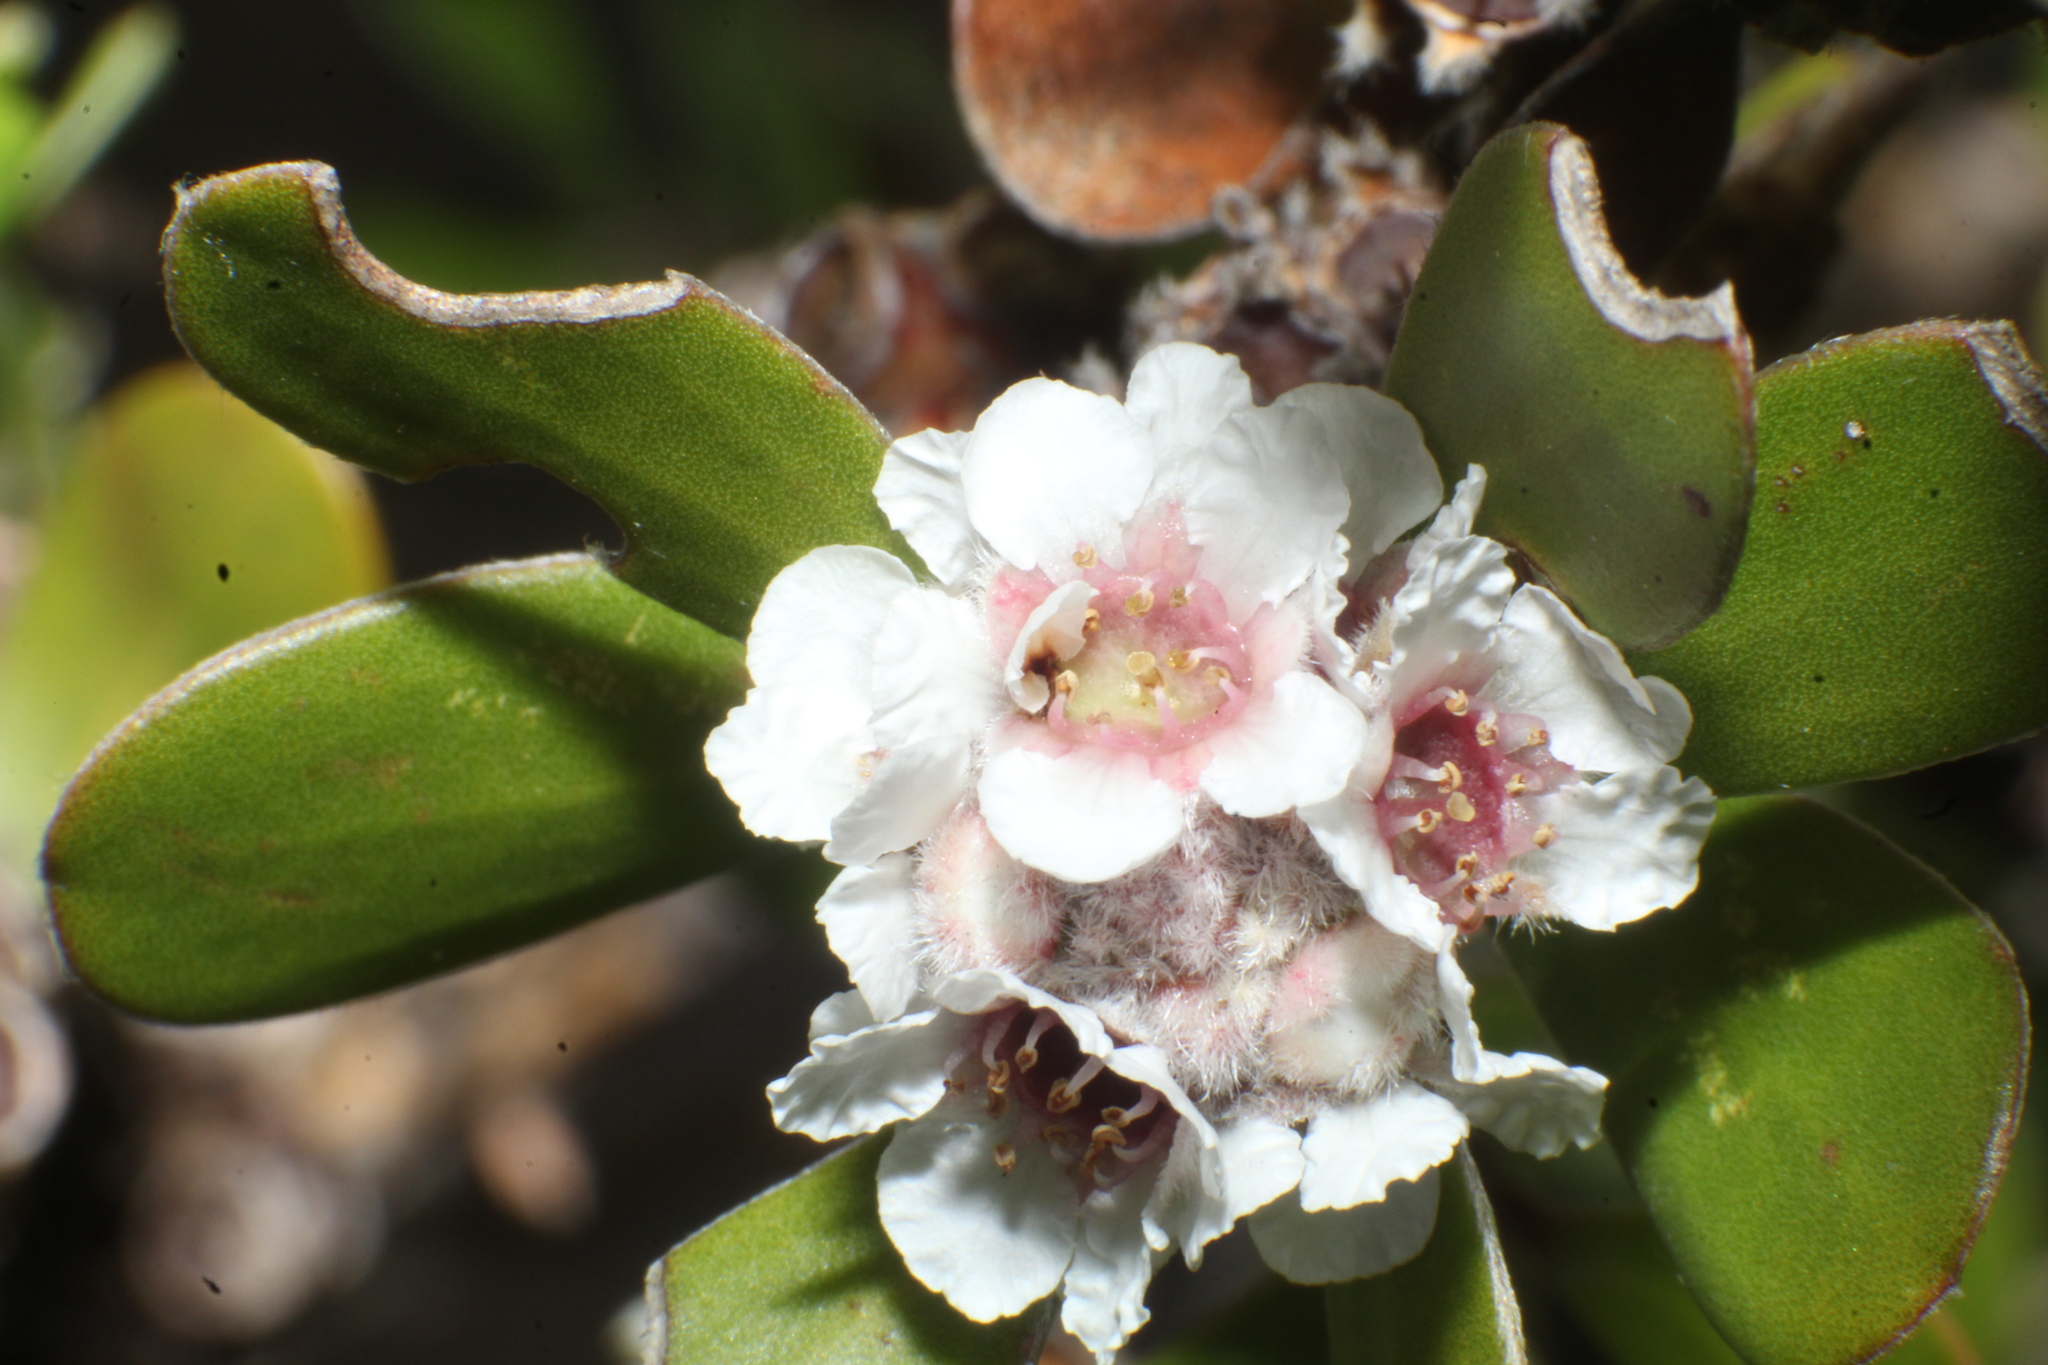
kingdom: Plantae
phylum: Tracheophyta
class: Magnoliopsida
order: Myrtales
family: Myrtaceae
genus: Taxandria
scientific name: Taxandria marginata
